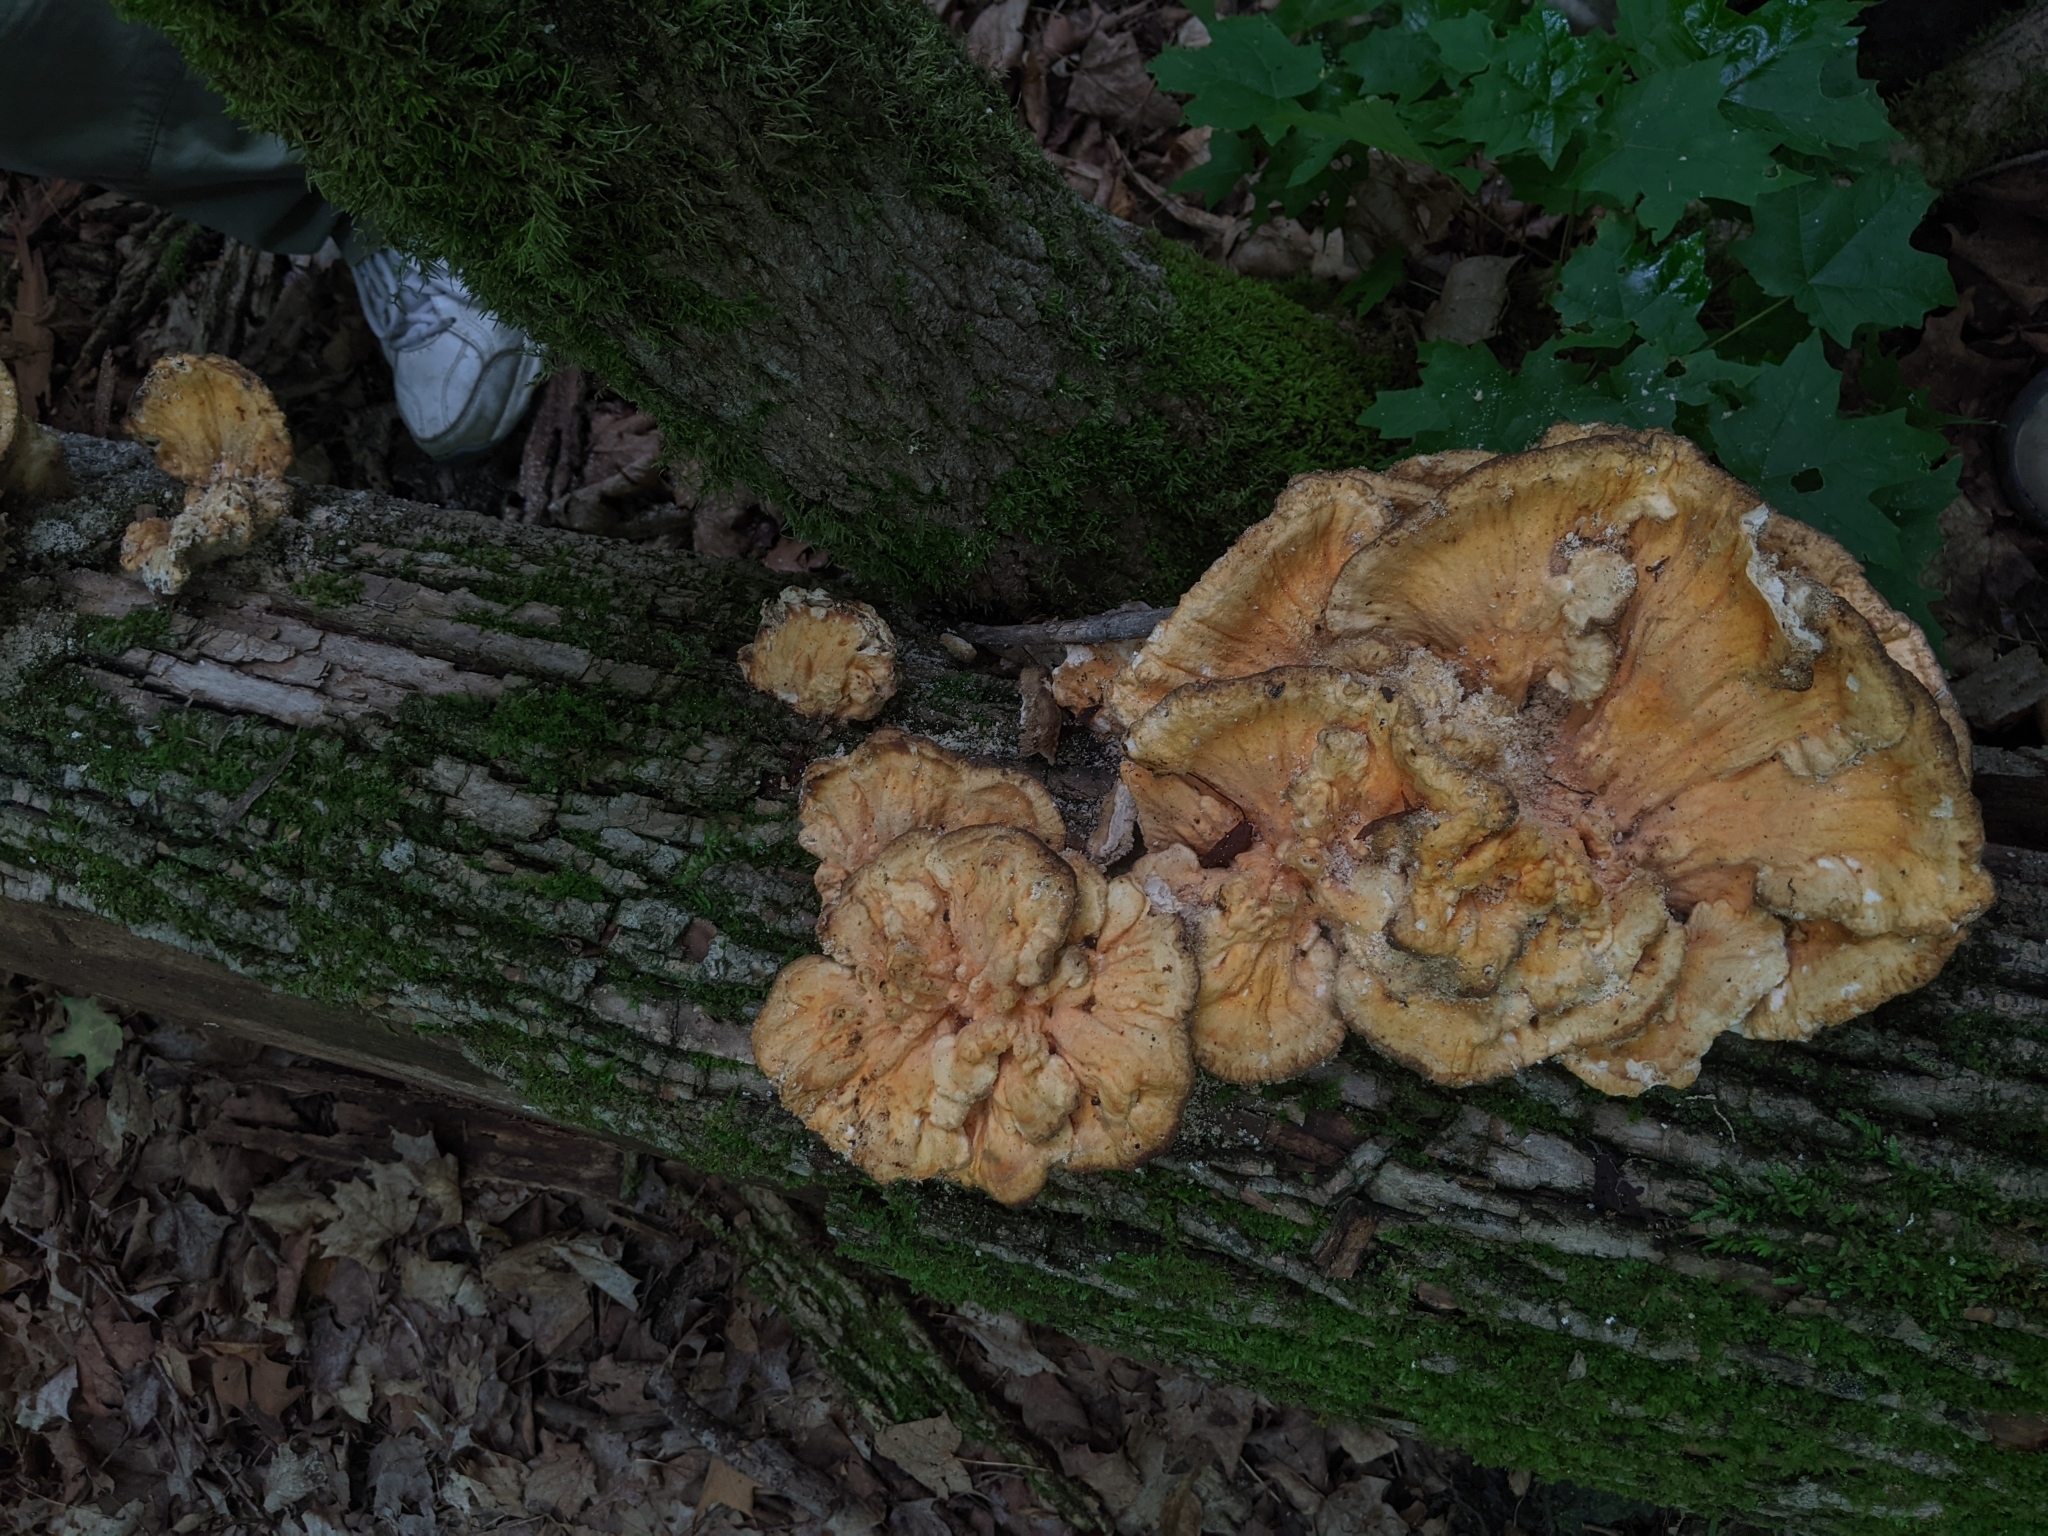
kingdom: Fungi
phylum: Basidiomycota
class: Agaricomycetes
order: Polyporales
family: Laetiporaceae
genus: Laetiporus
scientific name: Laetiporus sulphureus
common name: Chicken of the woods
